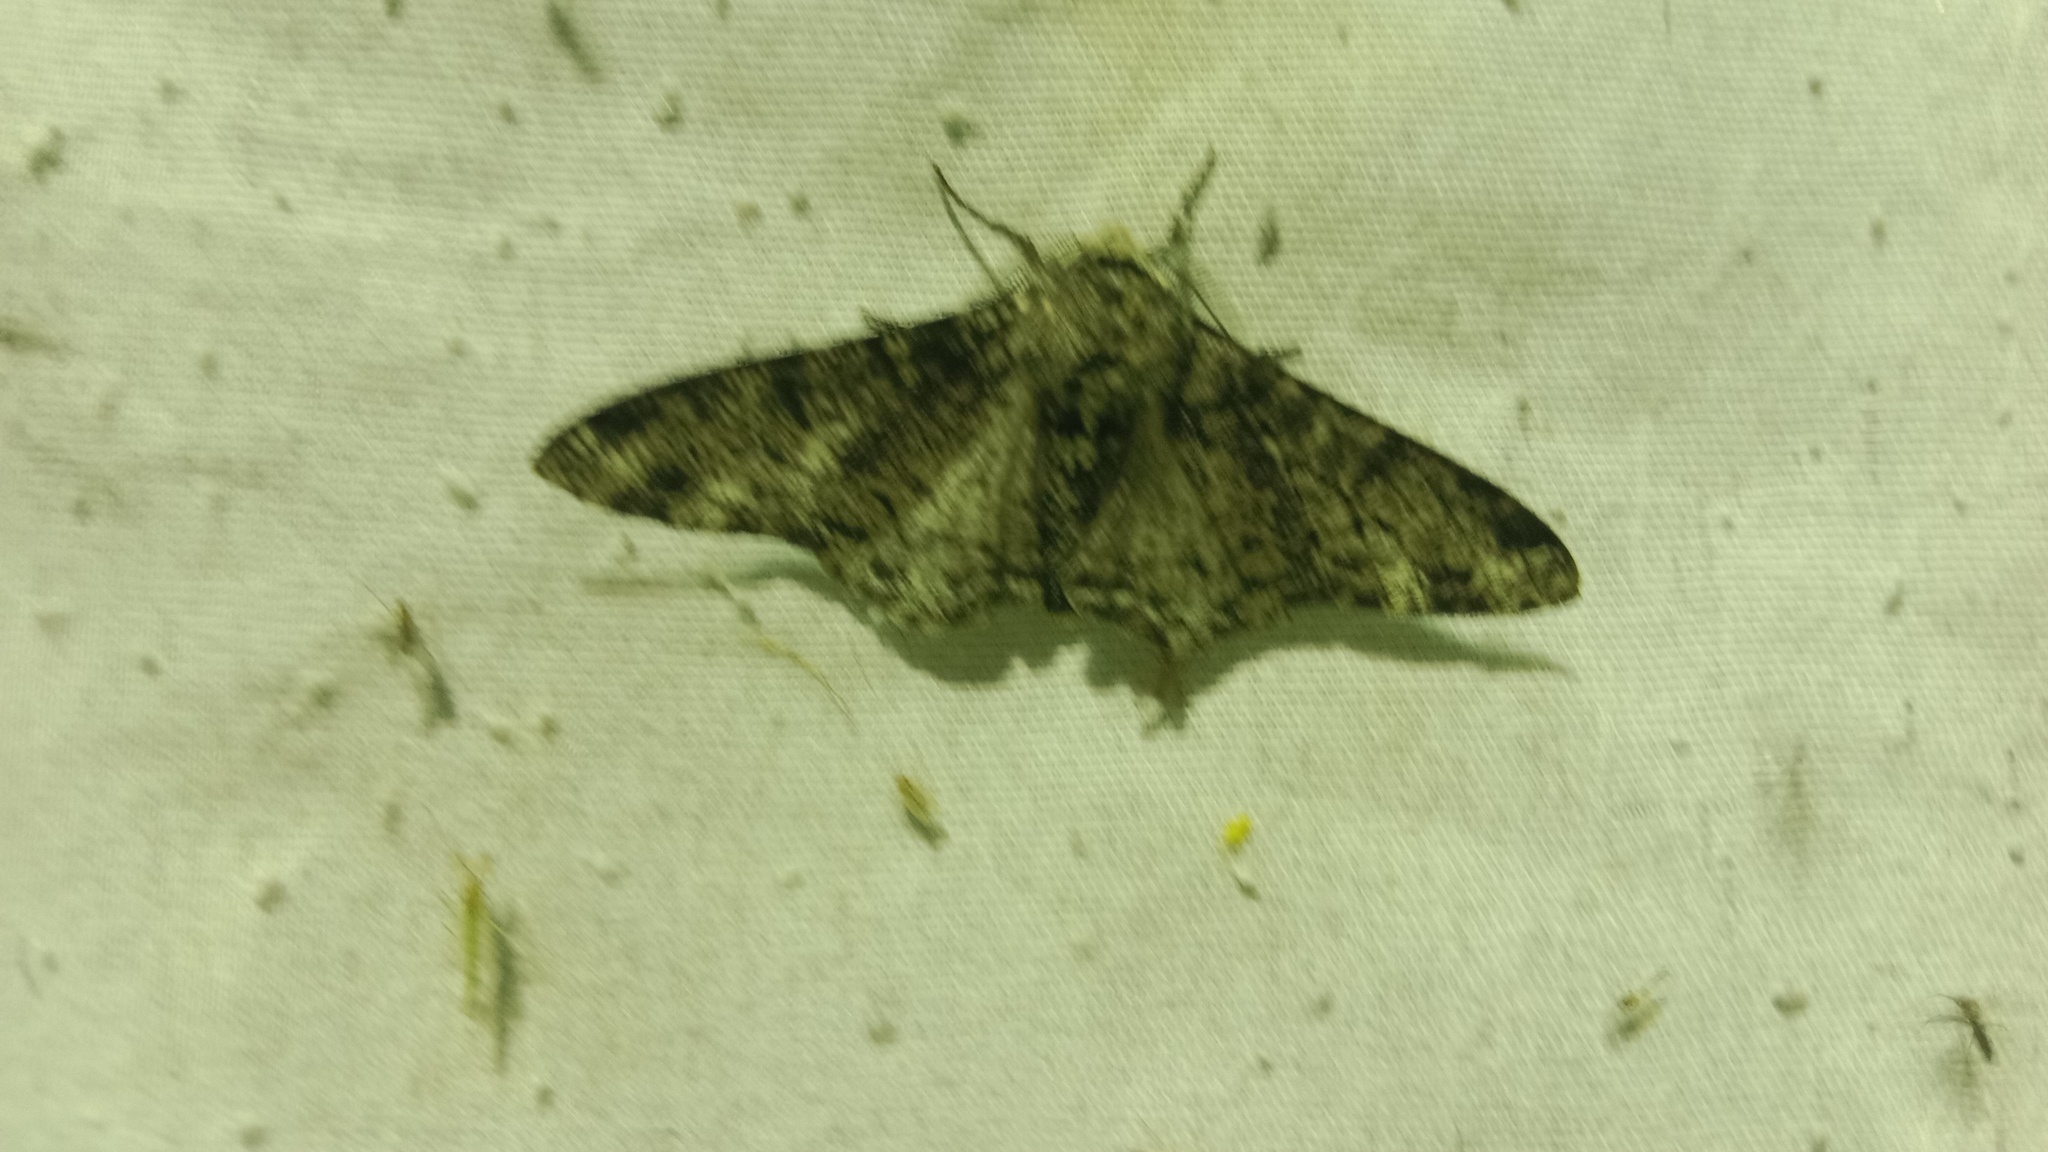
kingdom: Animalia
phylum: Arthropoda
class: Insecta
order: Lepidoptera
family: Geometridae
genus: Biston
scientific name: Biston betularia
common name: Peppered moth
